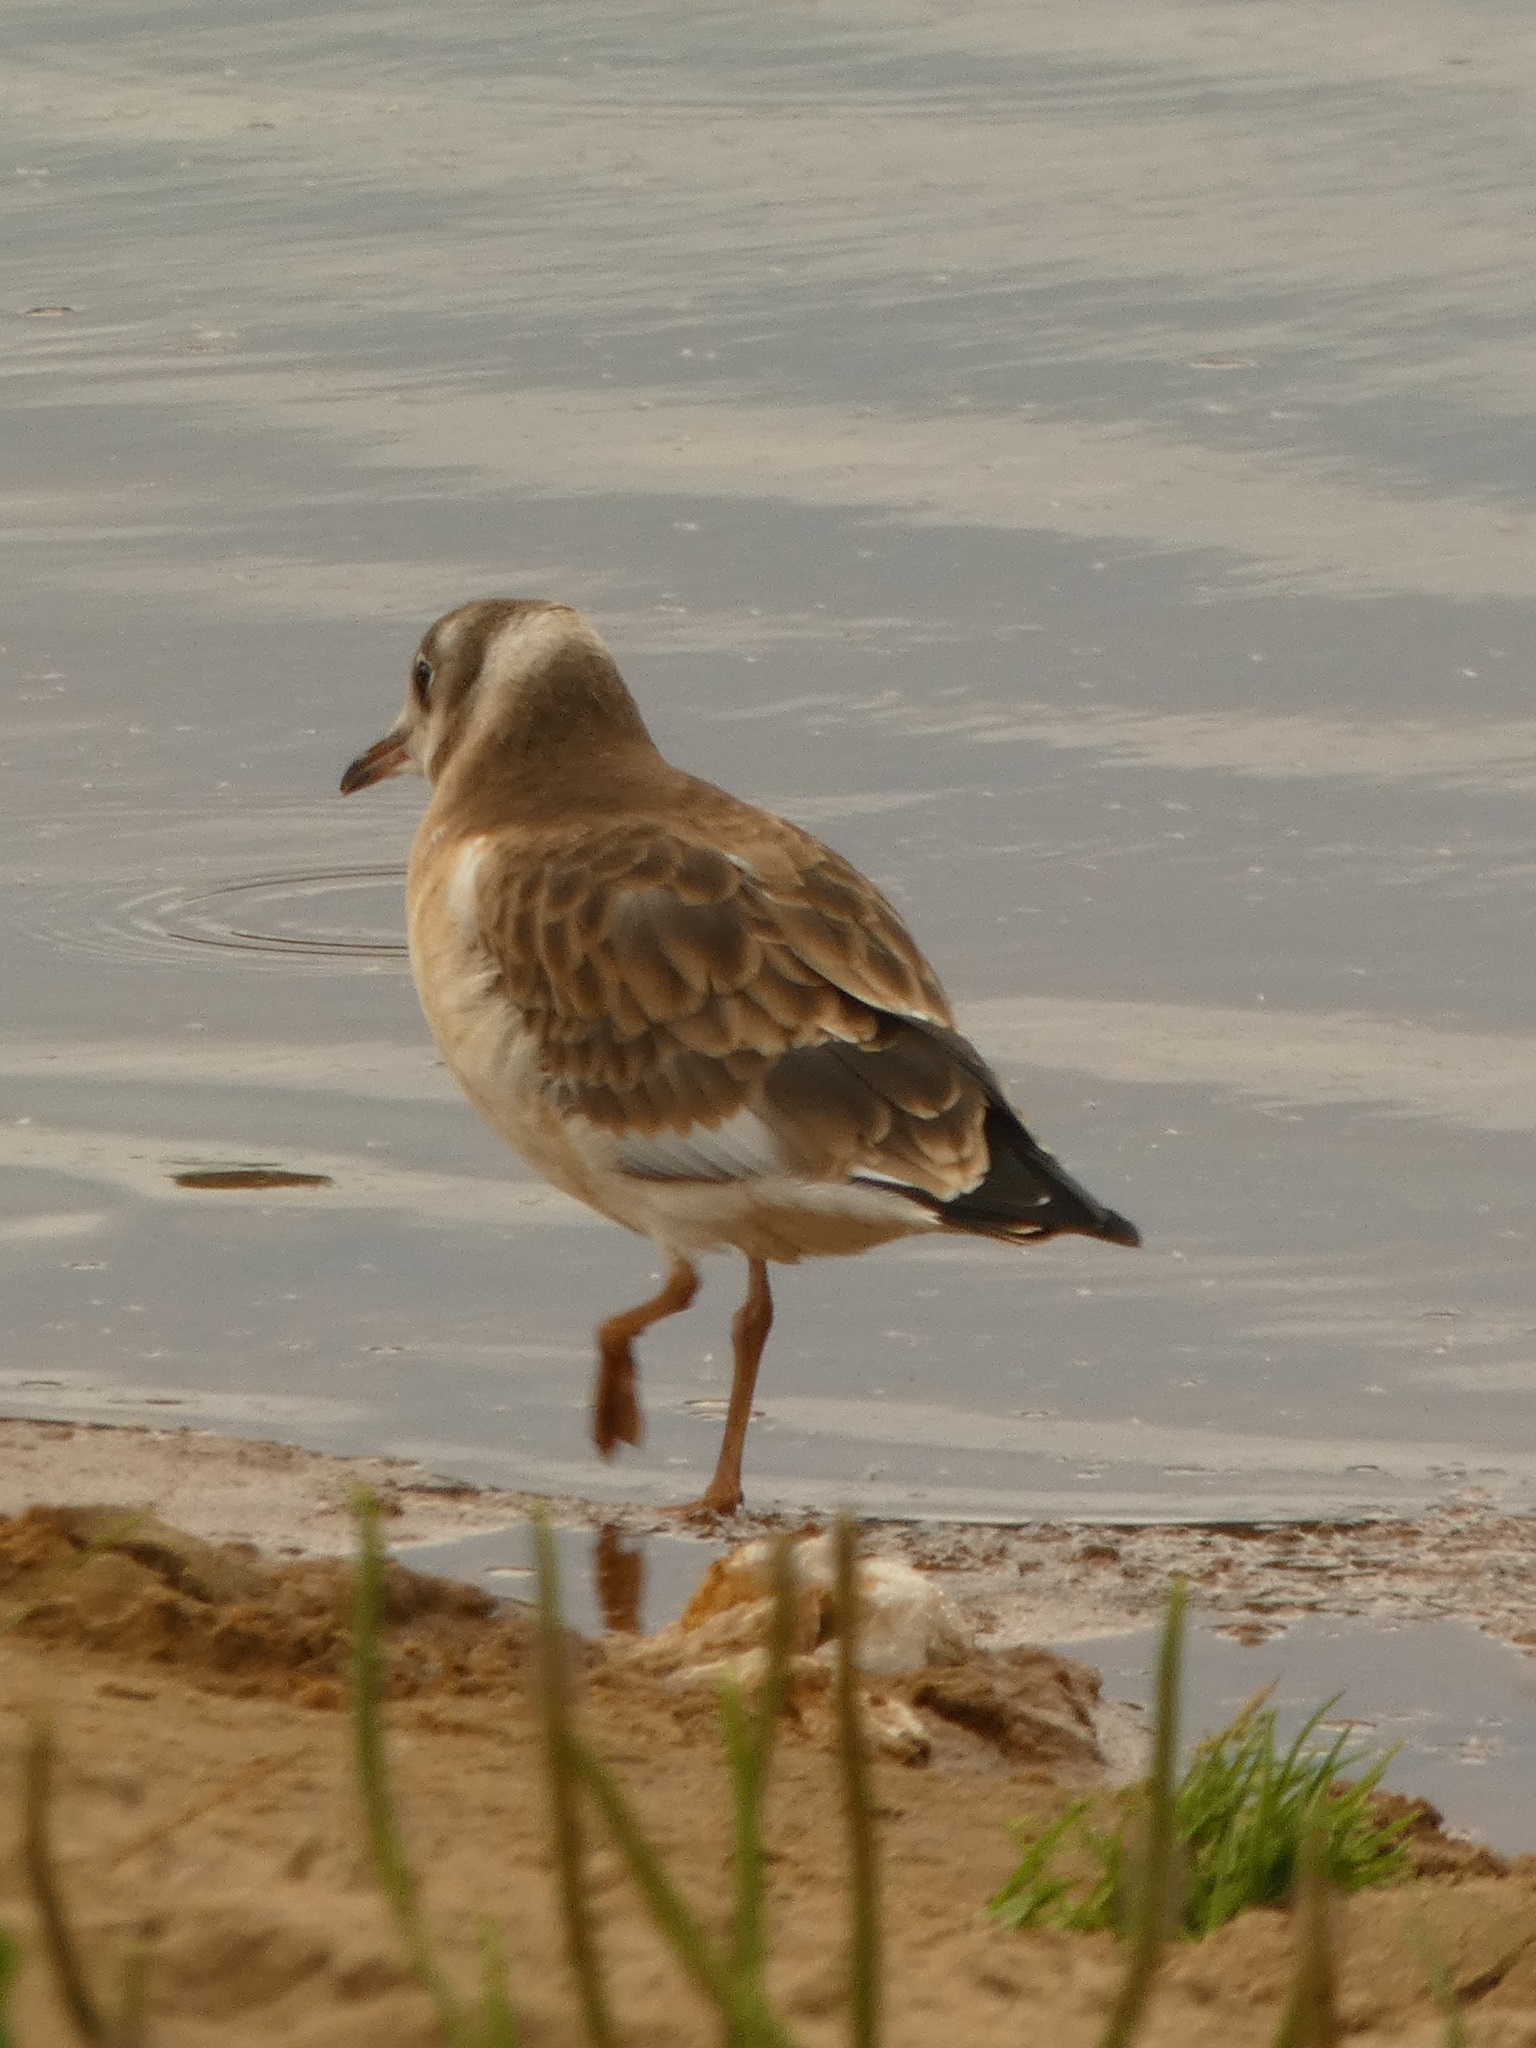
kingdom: Animalia
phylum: Chordata
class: Aves
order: Charadriiformes
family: Laridae
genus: Chroicocephalus
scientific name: Chroicocephalus ridibundus
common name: Black-headed gull
